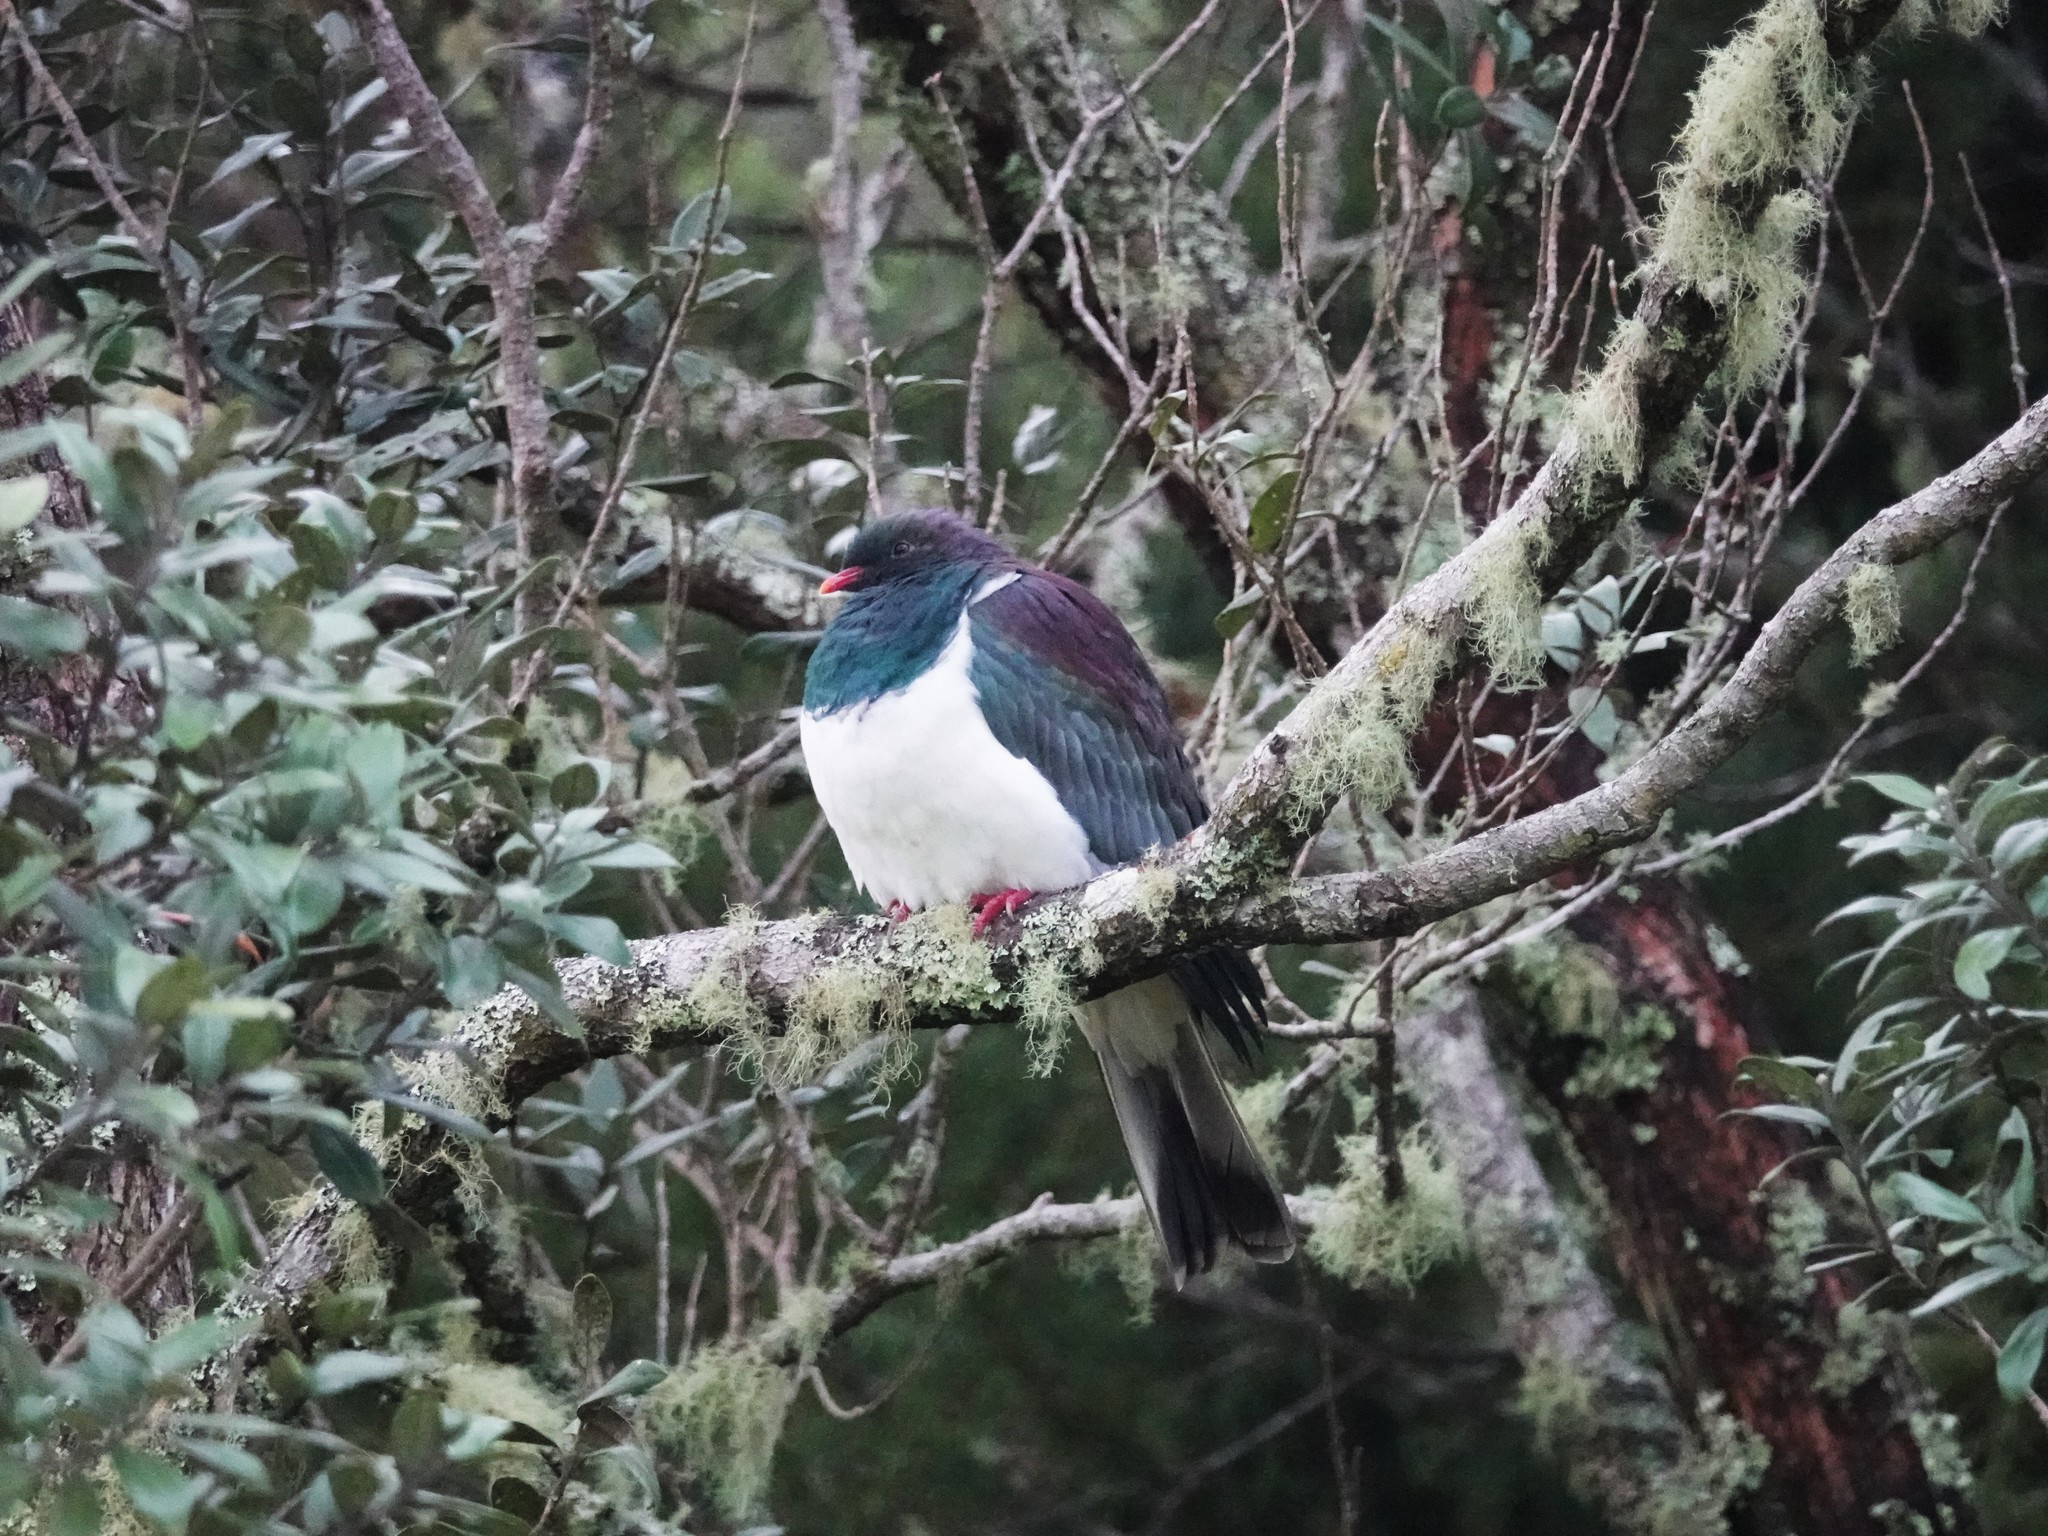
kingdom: Animalia
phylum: Chordata
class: Aves
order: Columbiformes
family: Columbidae
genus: Hemiphaga
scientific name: Hemiphaga novaeseelandiae
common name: New zealand pigeon
